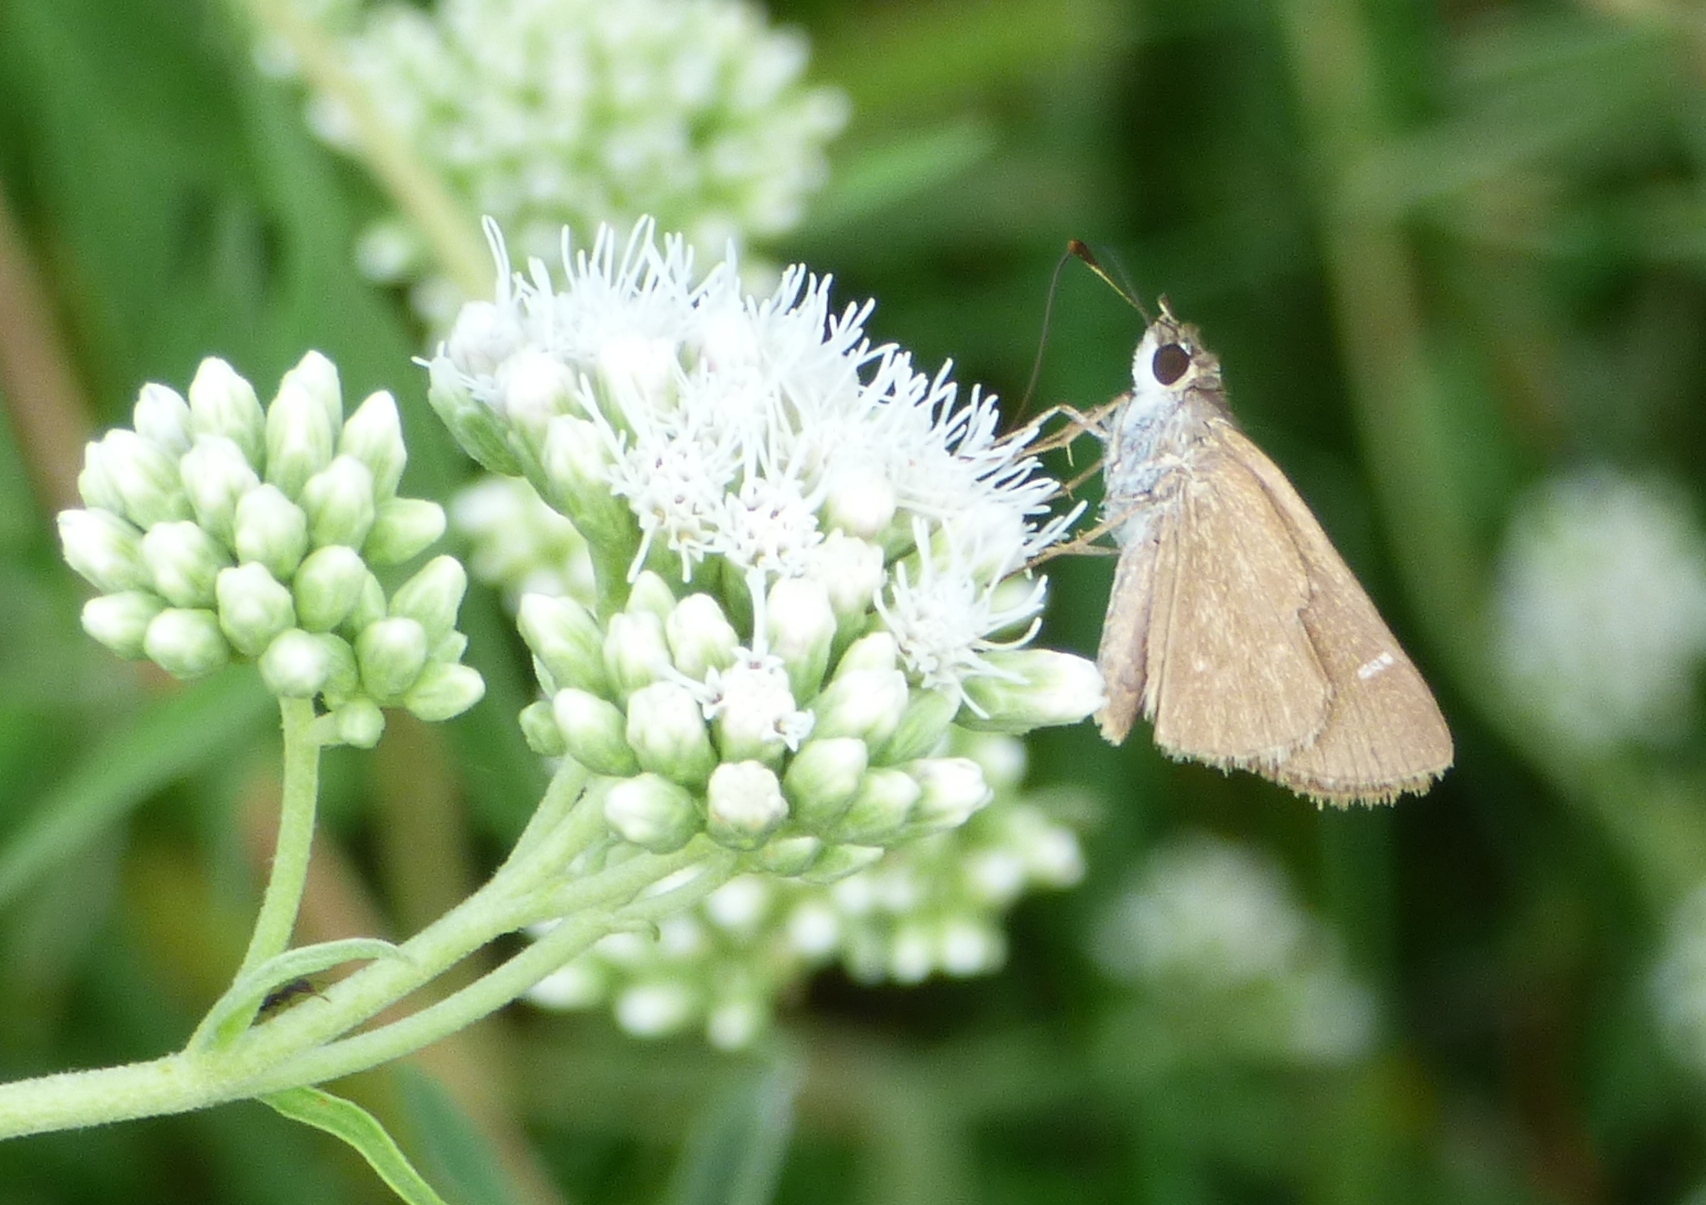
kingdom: Animalia
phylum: Arthropoda
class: Insecta
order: Lepidoptera
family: Hesperiidae
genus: Lerodea
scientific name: Lerodea eufala
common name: Eufala skipper
